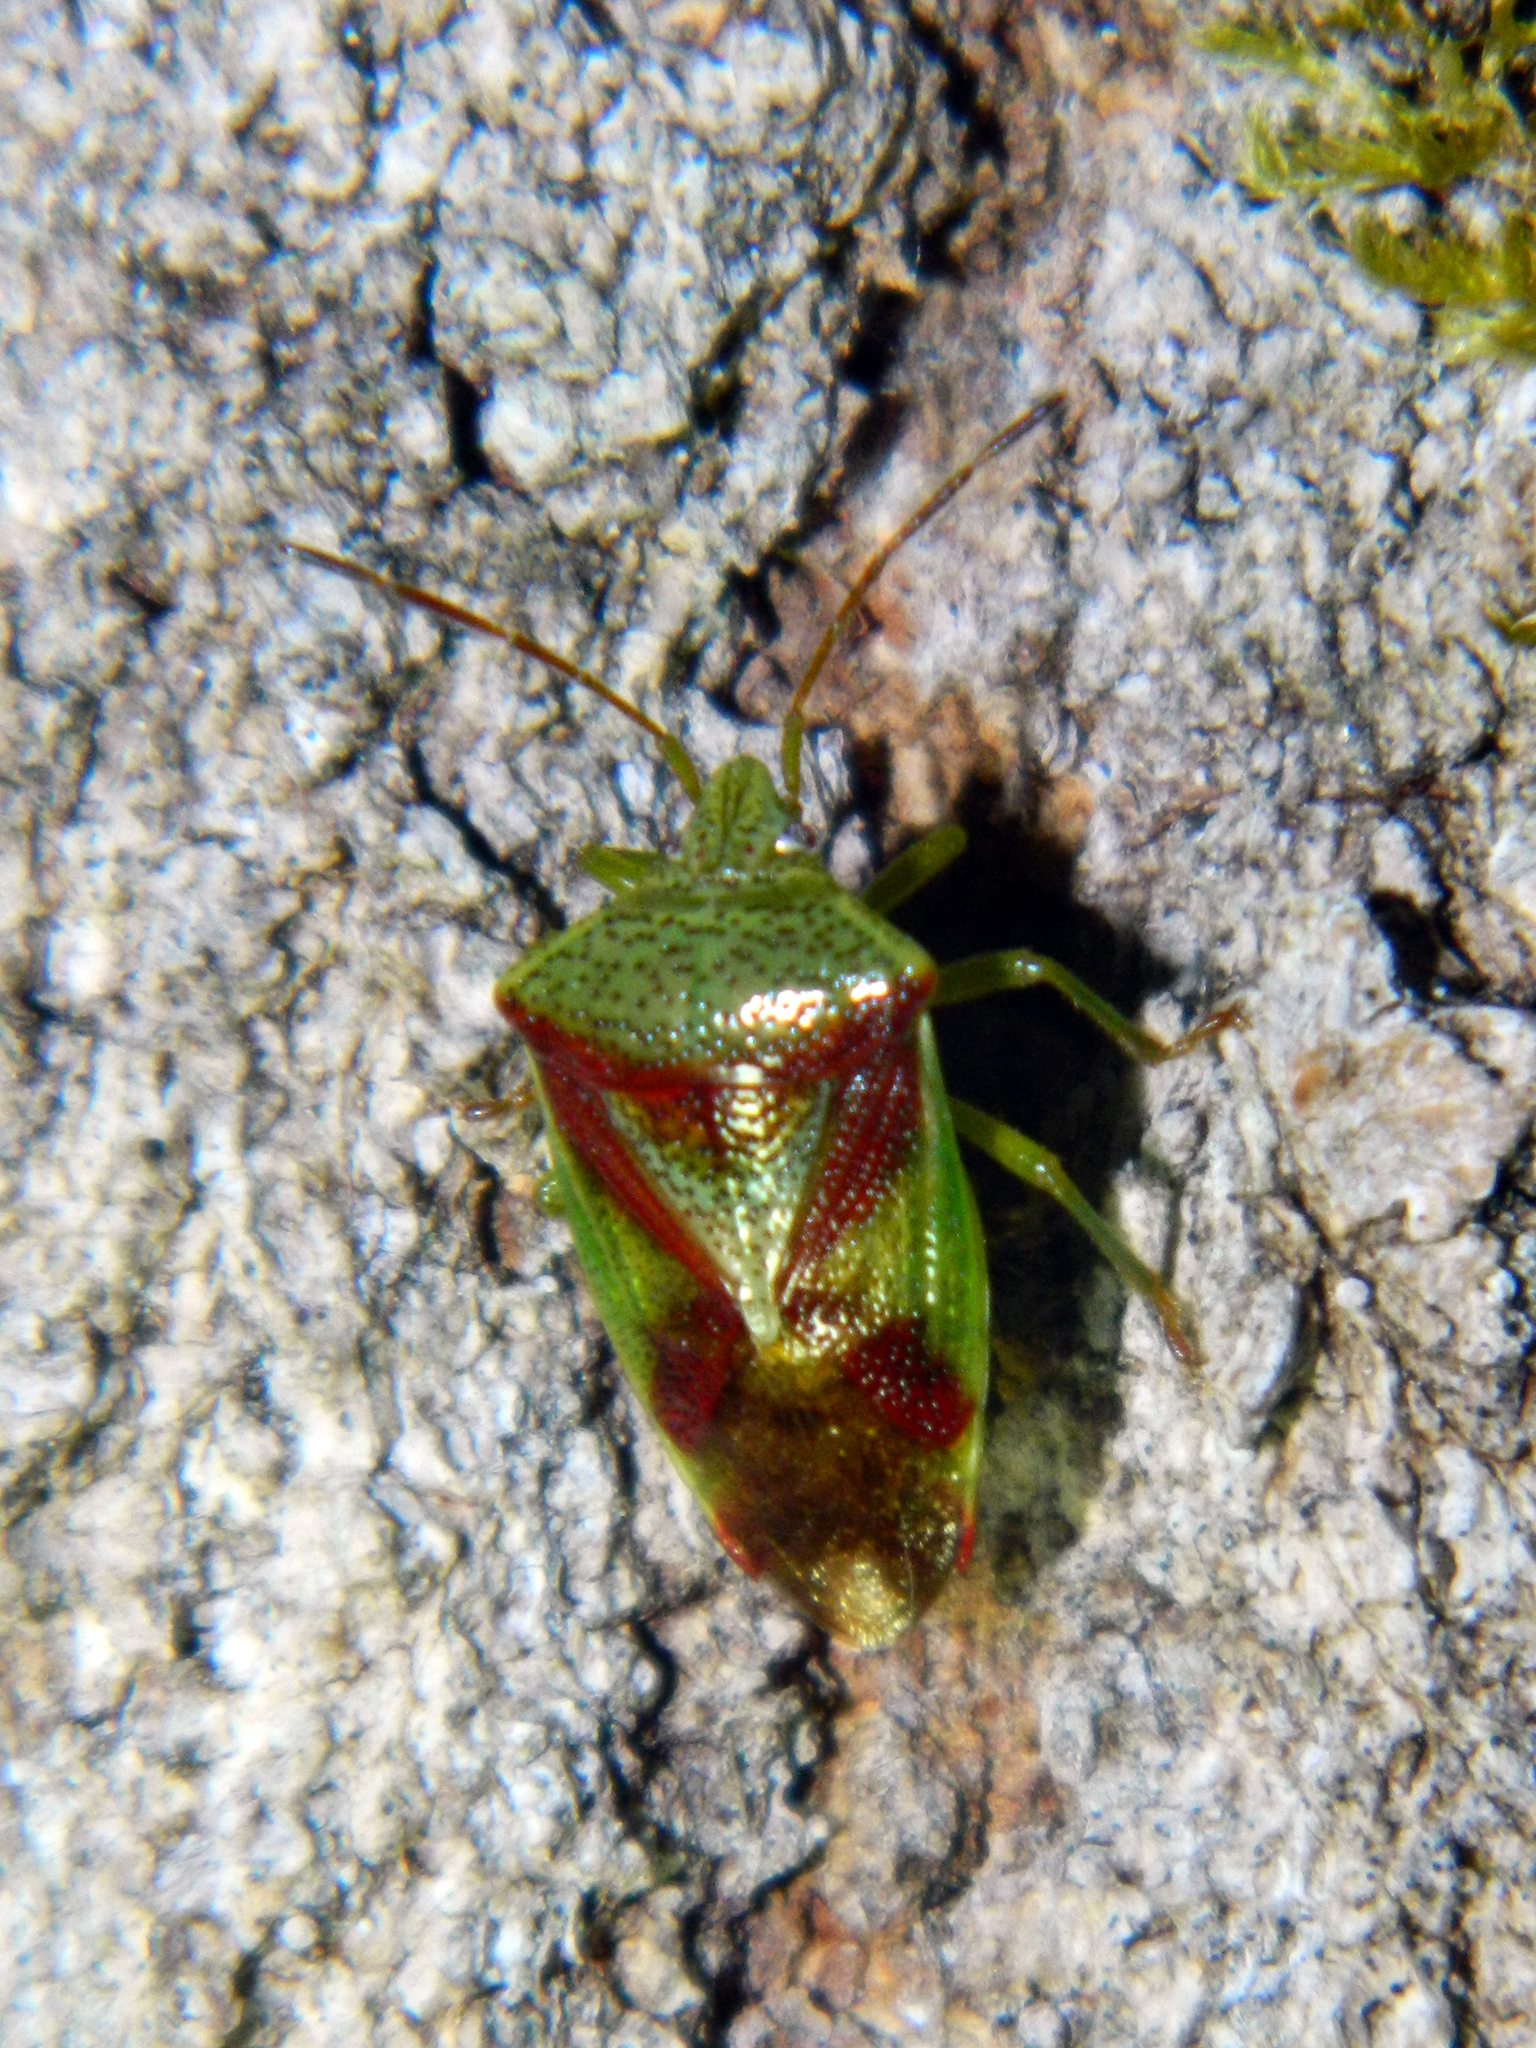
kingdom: Animalia
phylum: Arthropoda
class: Insecta
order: Hemiptera
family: Acanthosomatidae
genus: Elasmostethus
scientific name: Elasmostethus cruciatus
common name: Red-cross shield bug
